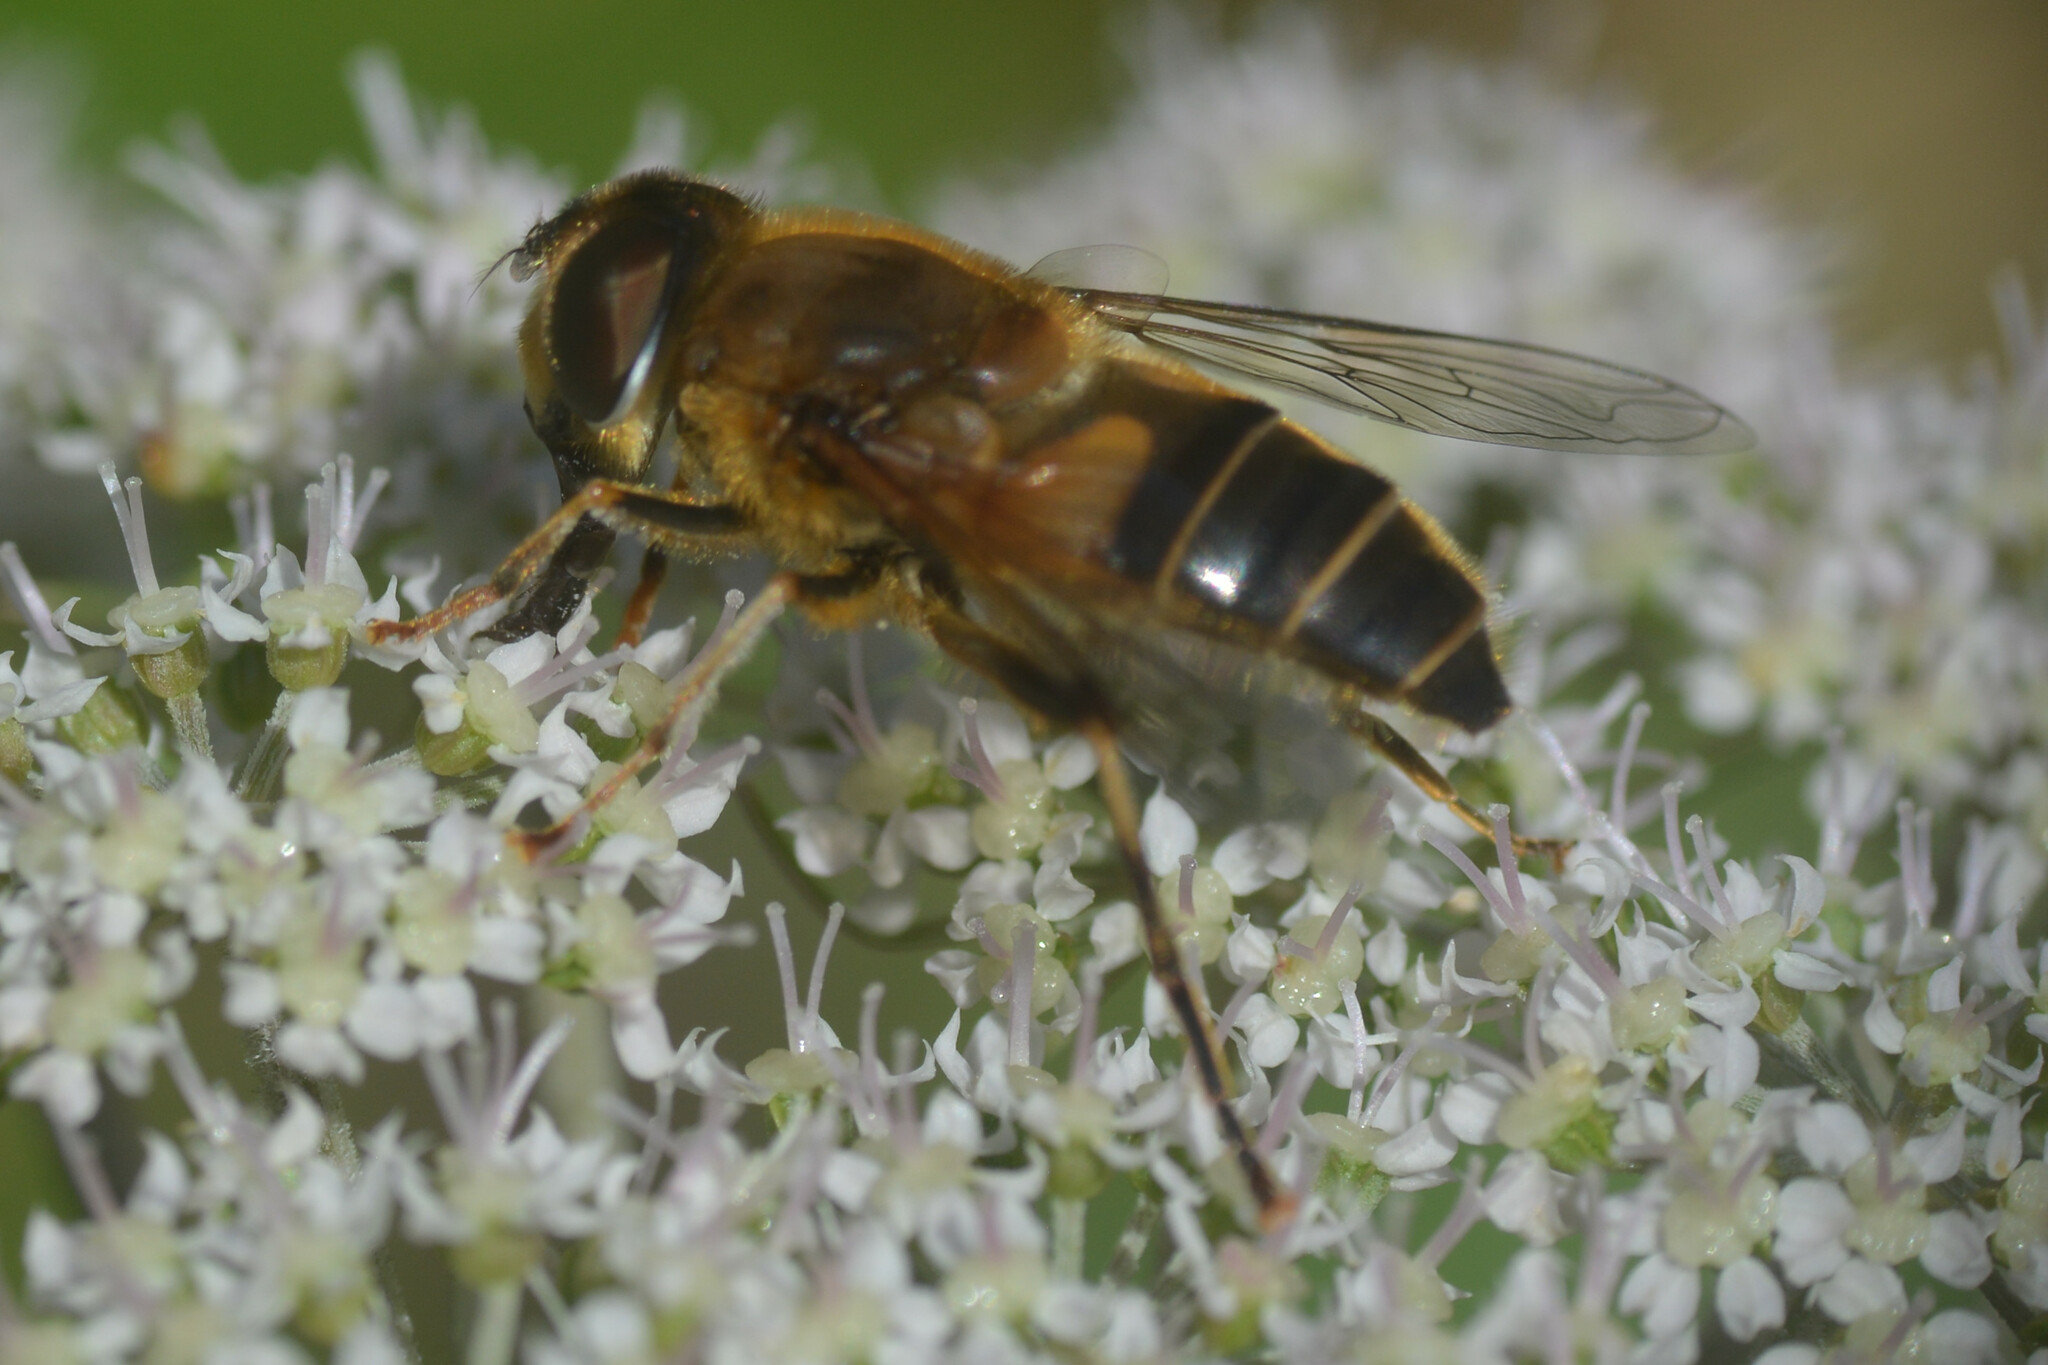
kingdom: Animalia
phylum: Arthropoda
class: Insecta
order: Diptera
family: Syrphidae
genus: Eristalis
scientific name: Eristalis pertinax
